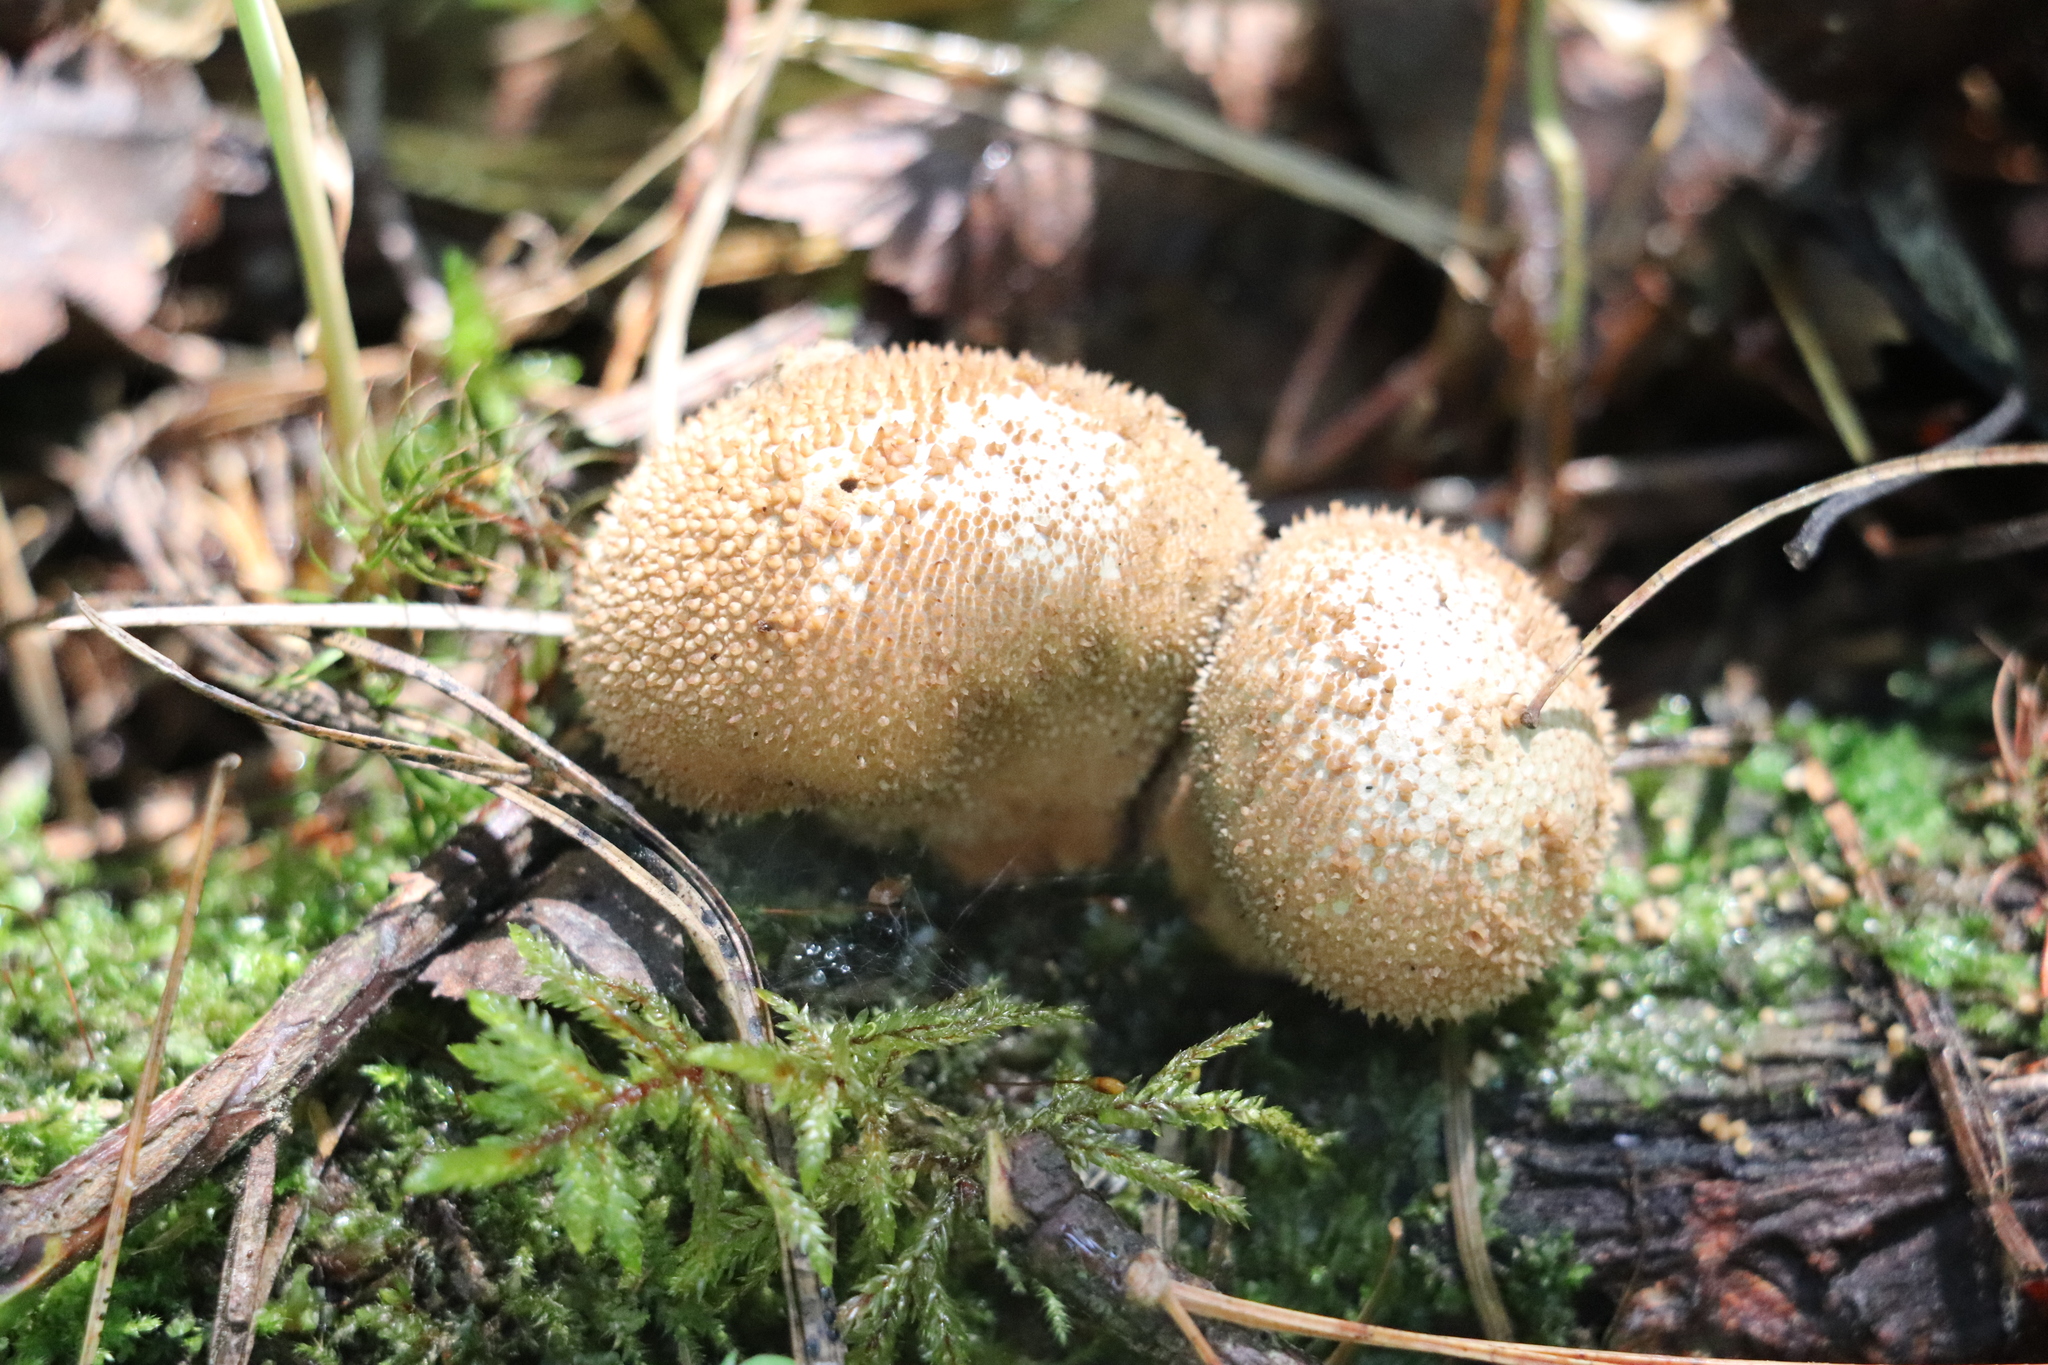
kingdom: Fungi
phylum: Basidiomycota
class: Agaricomycetes
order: Agaricales
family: Lycoperdaceae
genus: Lycoperdon
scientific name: Lycoperdon perlatum
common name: Common puffball
